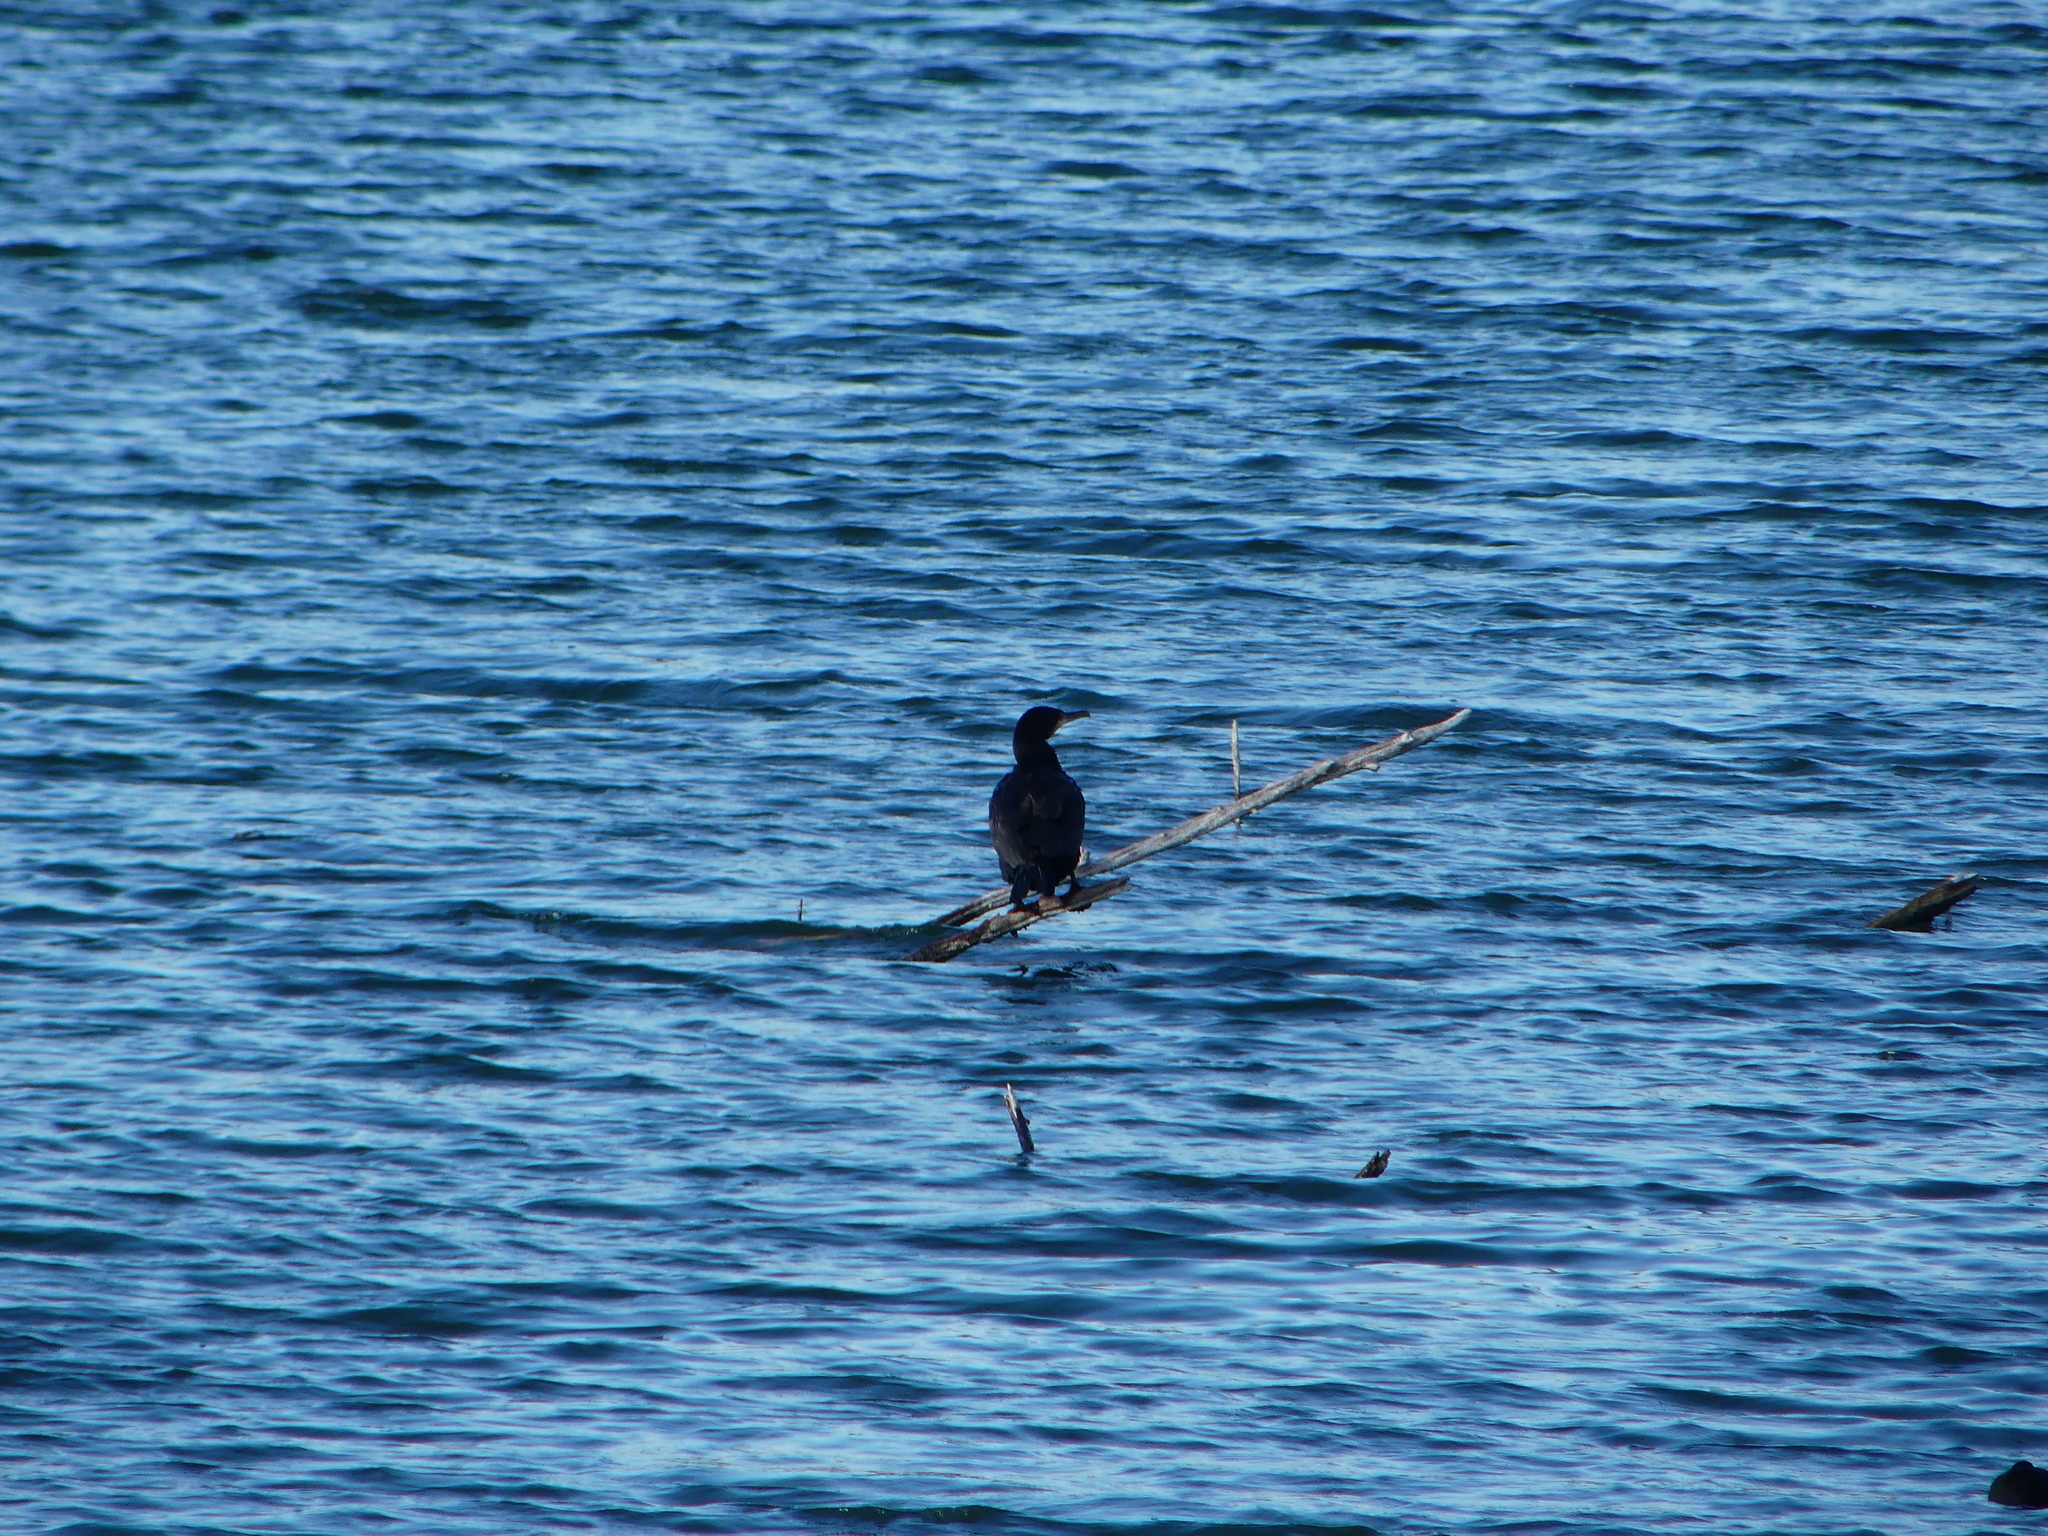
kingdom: Animalia
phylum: Chordata
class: Aves
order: Suliformes
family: Phalacrocoracidae
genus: Phalacrocorax
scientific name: Phalacrocorax carbo
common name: Great cormorant
